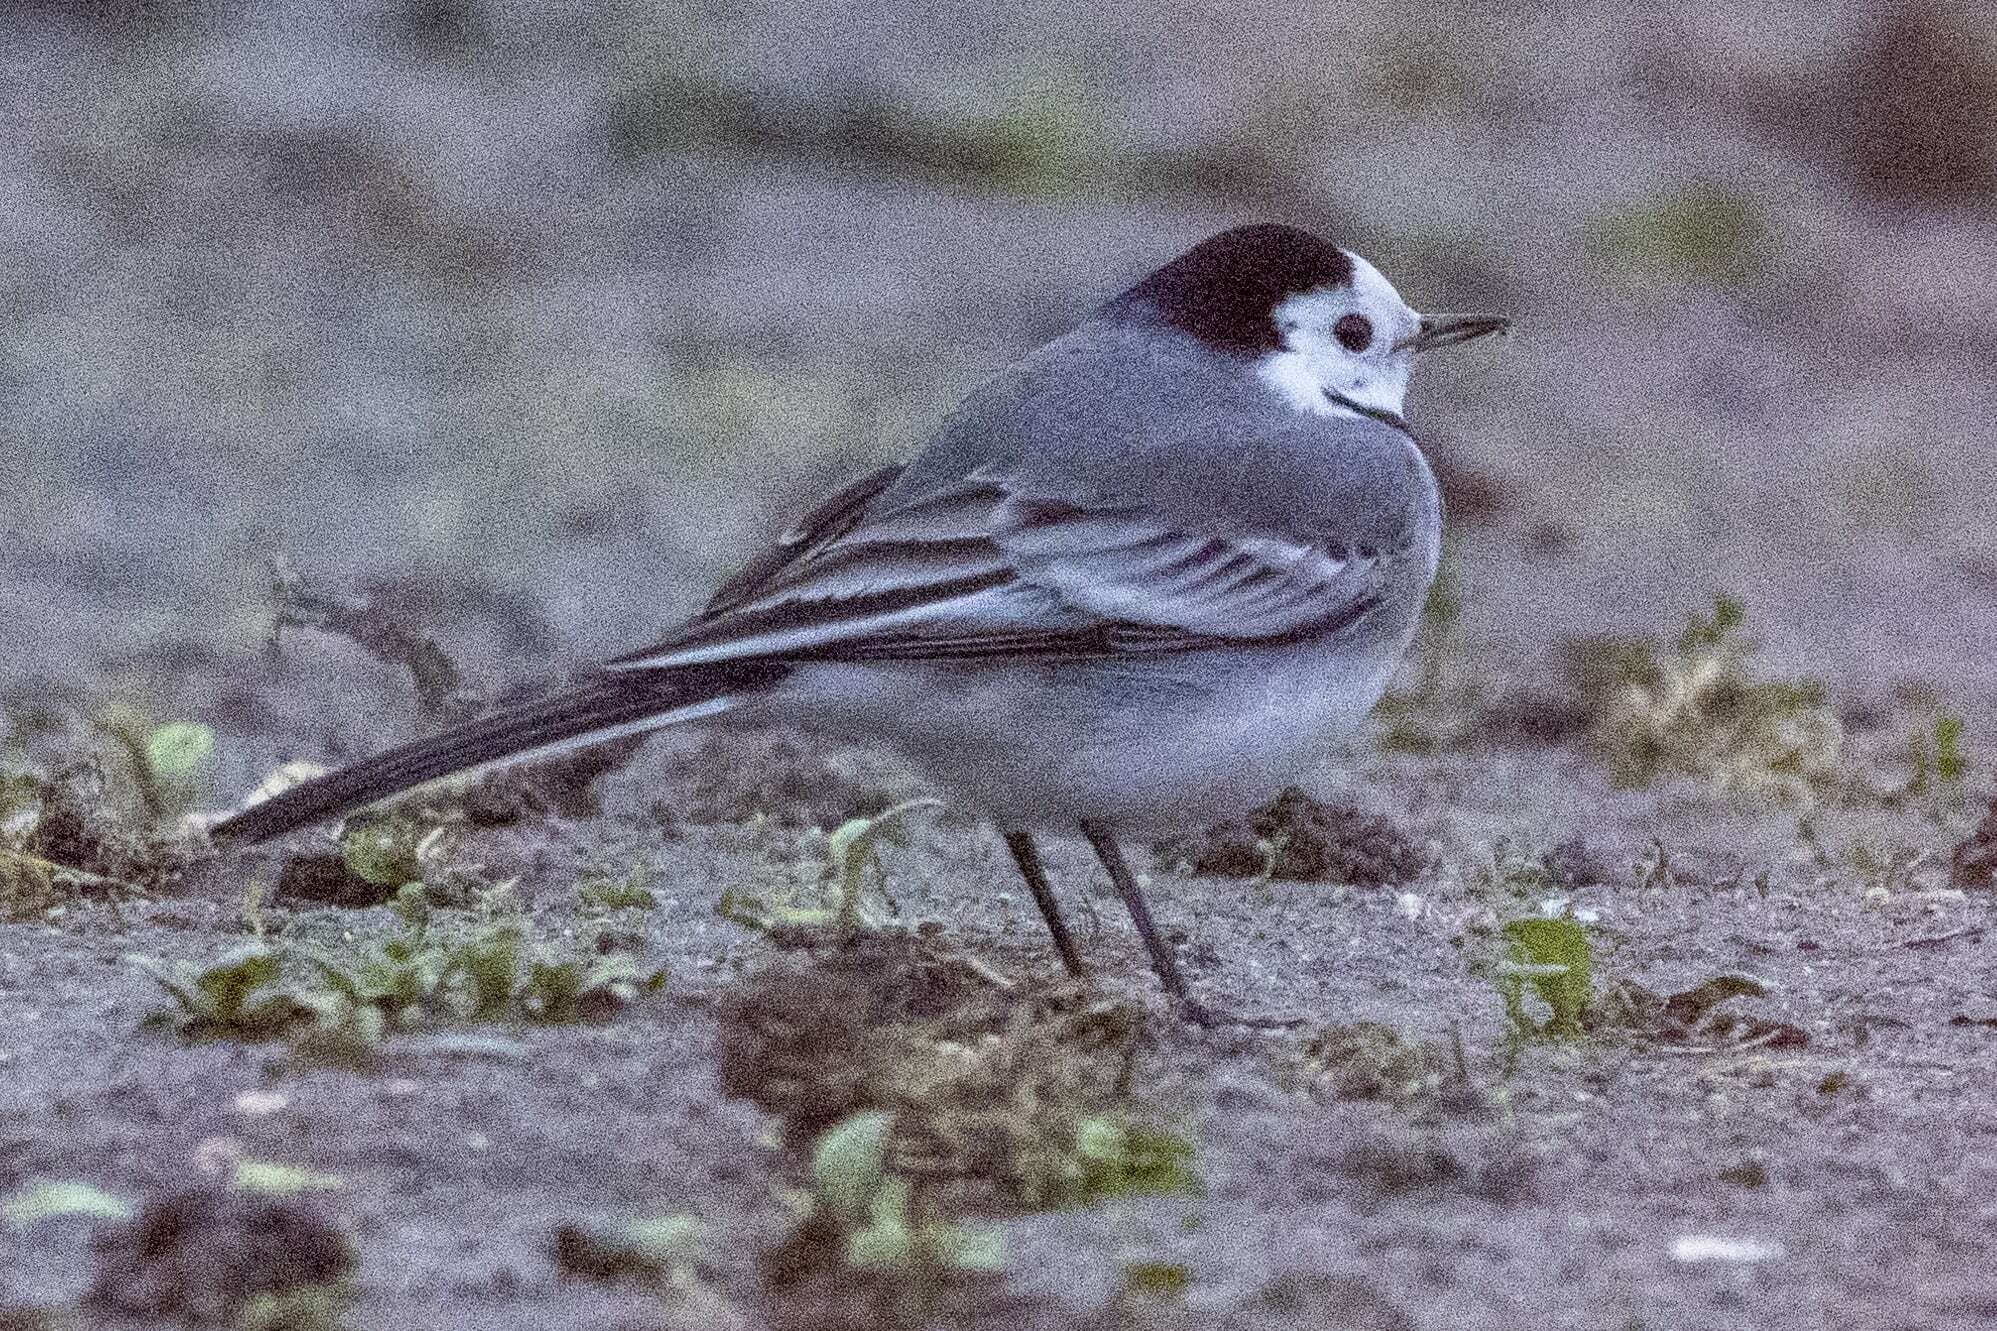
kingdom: Animalia
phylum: Chordata
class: Aves
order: Passeriformes
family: Motacillidae
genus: Motacilla
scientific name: Motacilla alba
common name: White wagtail
